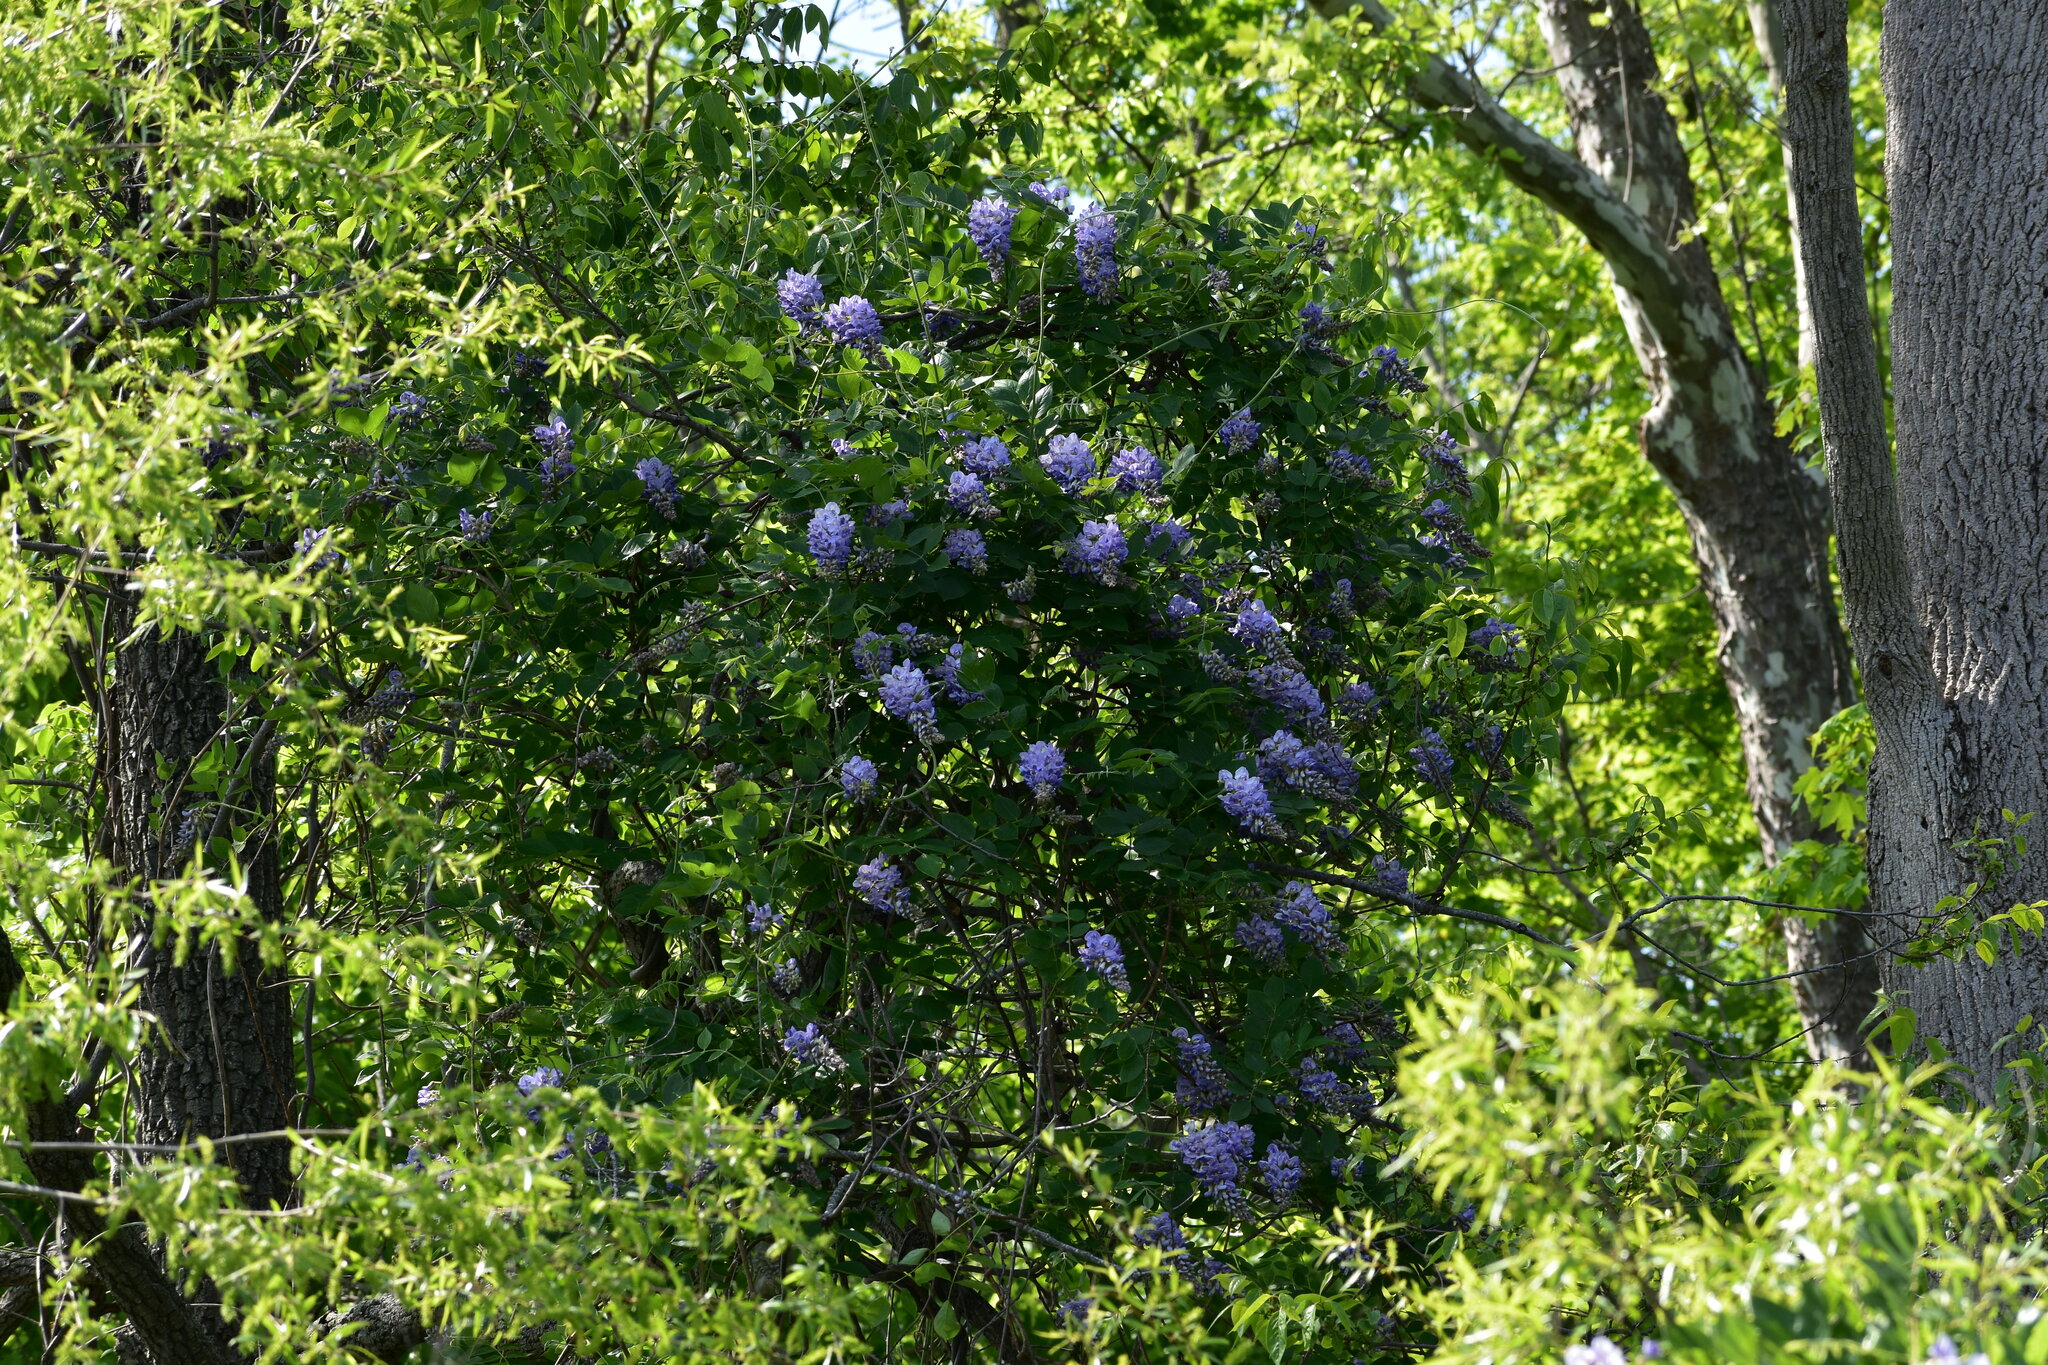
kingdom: Plantae
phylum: Tracheophyta
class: Magnoliopsida
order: Fabales
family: Fabaceae
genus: Wisteria
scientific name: Wisteria frutescens
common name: American wisteria
